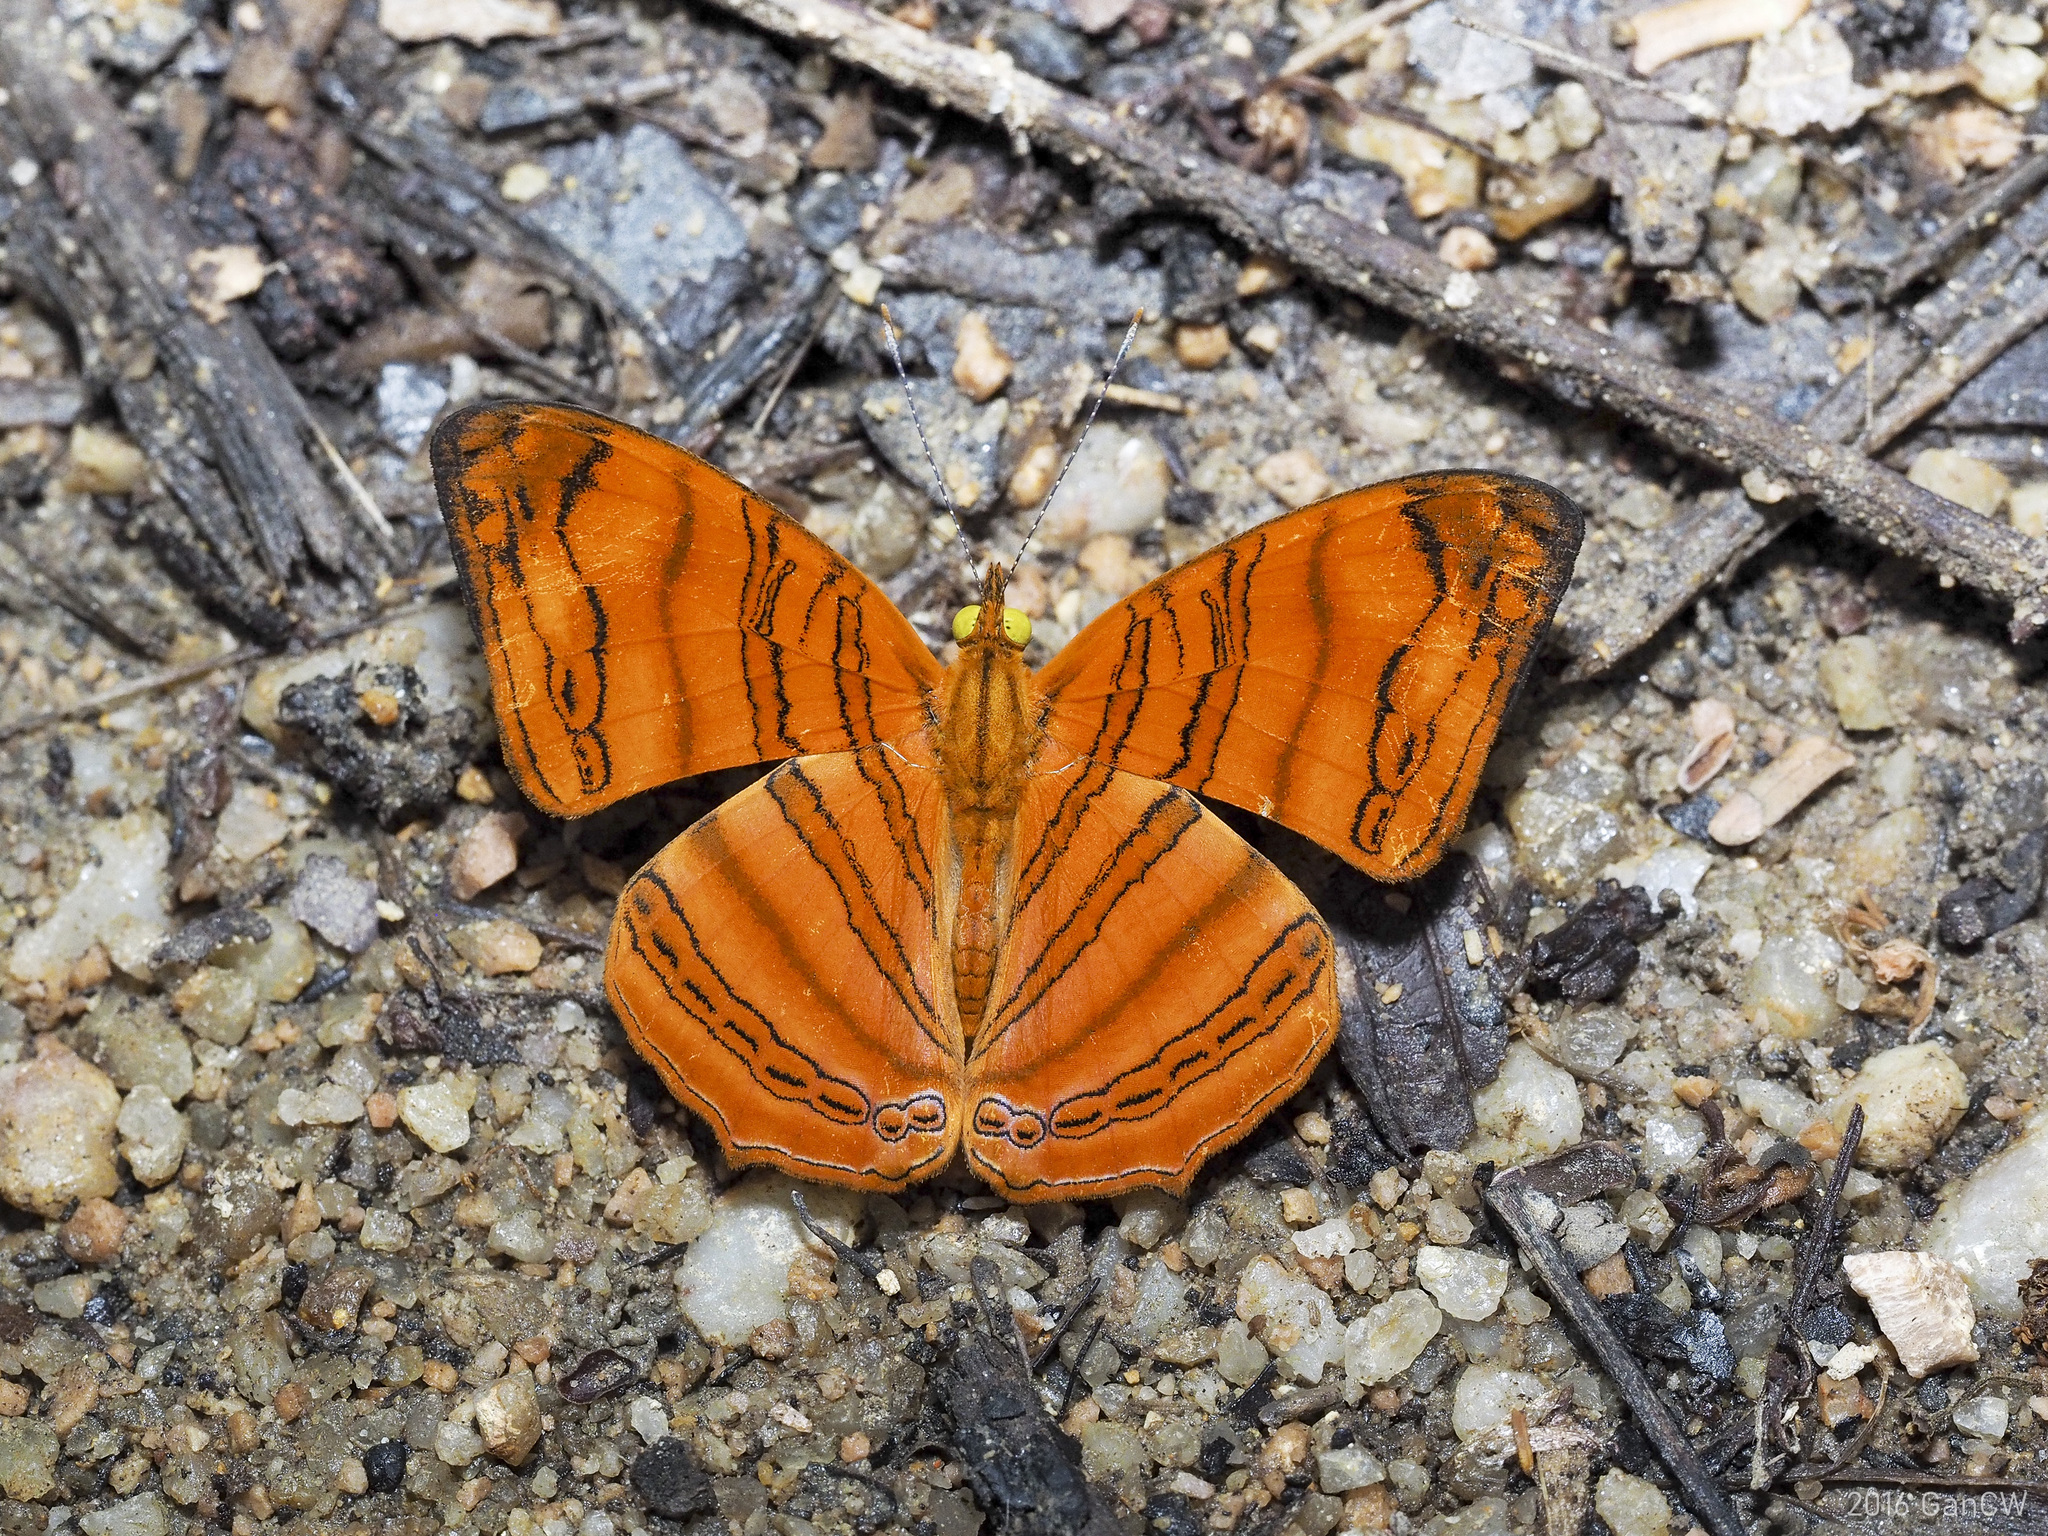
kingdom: Animalia
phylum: Arthropoda
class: Insecta
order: Lepidoptera
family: Nymphalidae
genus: Chersonesia
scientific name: Chersonesia rahria
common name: Wavy maplet
